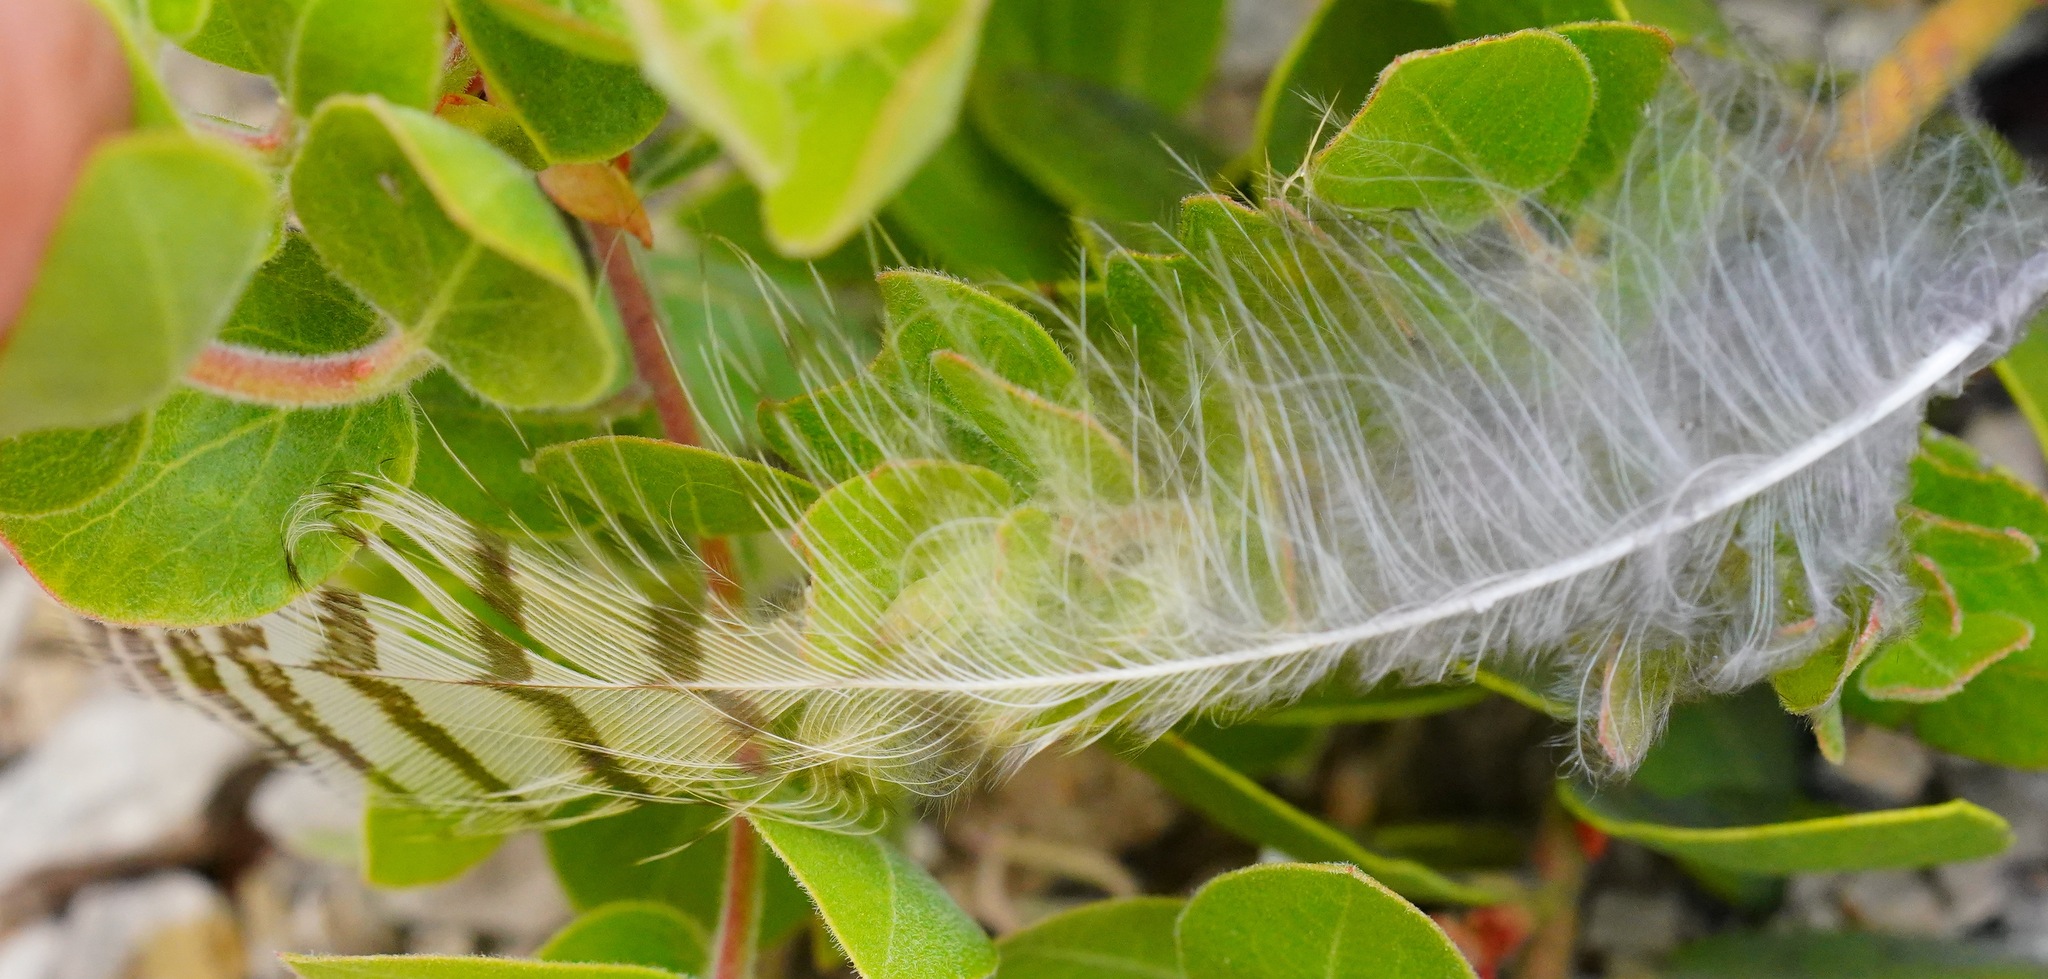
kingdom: Animalia
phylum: Chordata
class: Aves
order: Strigiformes
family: Strigidae
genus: Bubo
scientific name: Bubo virginianus
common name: Great horned owl
